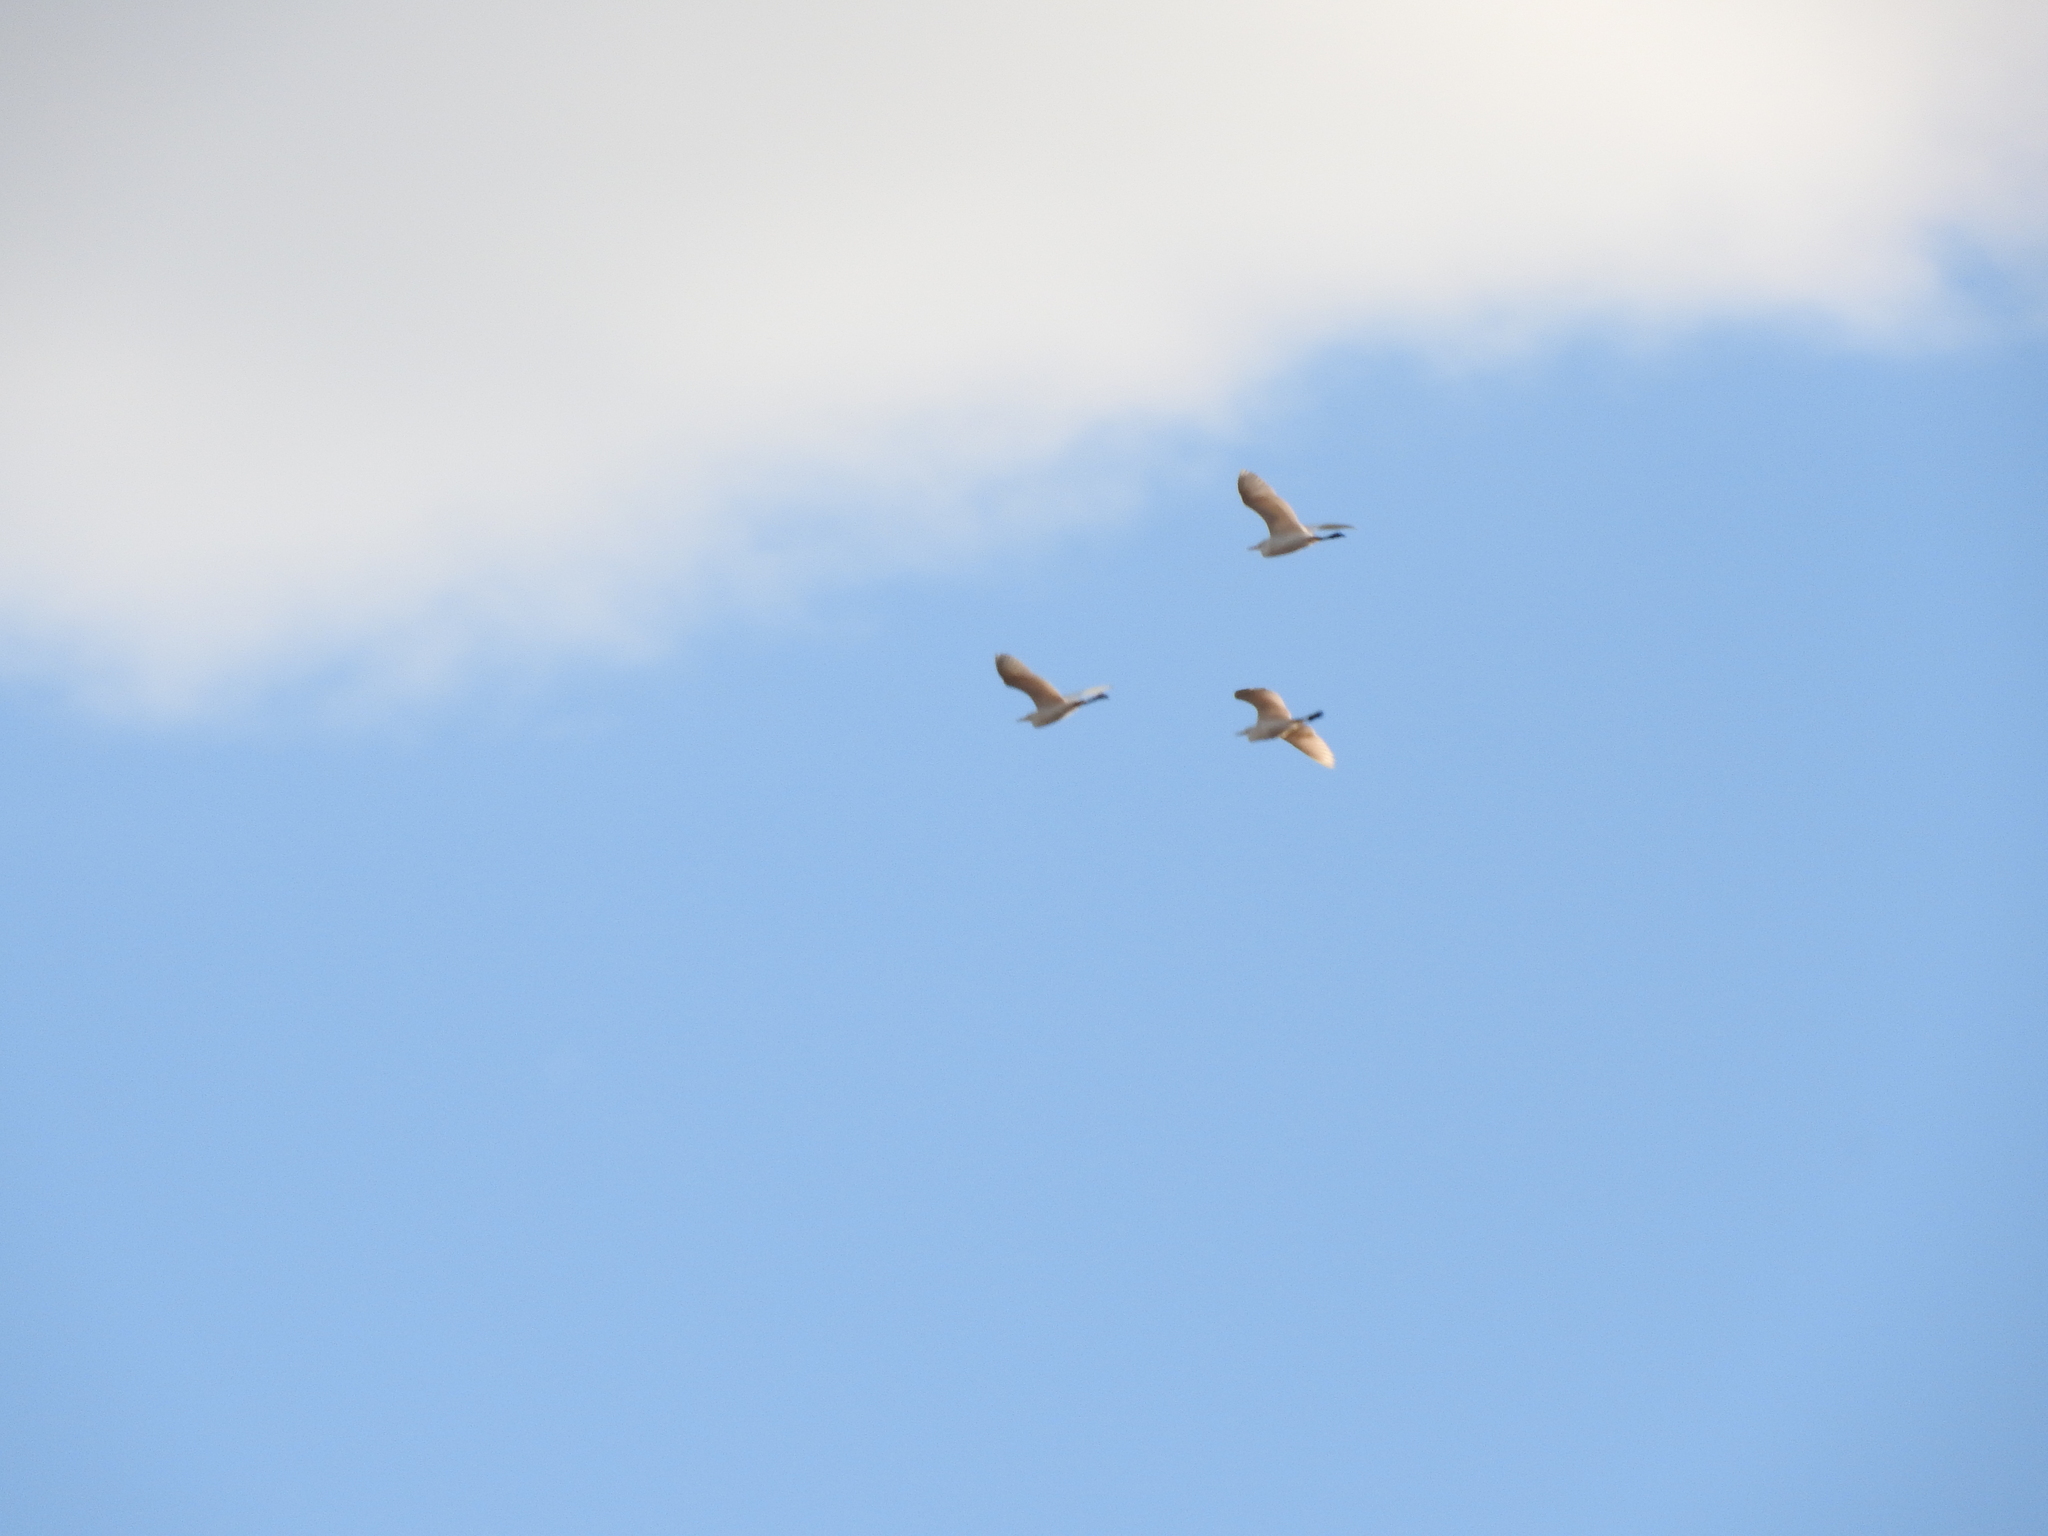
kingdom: Animalia
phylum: Chordata
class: Aves
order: Pelecaniformes
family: Ardeidae
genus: Bubulcus
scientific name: Bubulcus ibis
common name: Cattle egret
